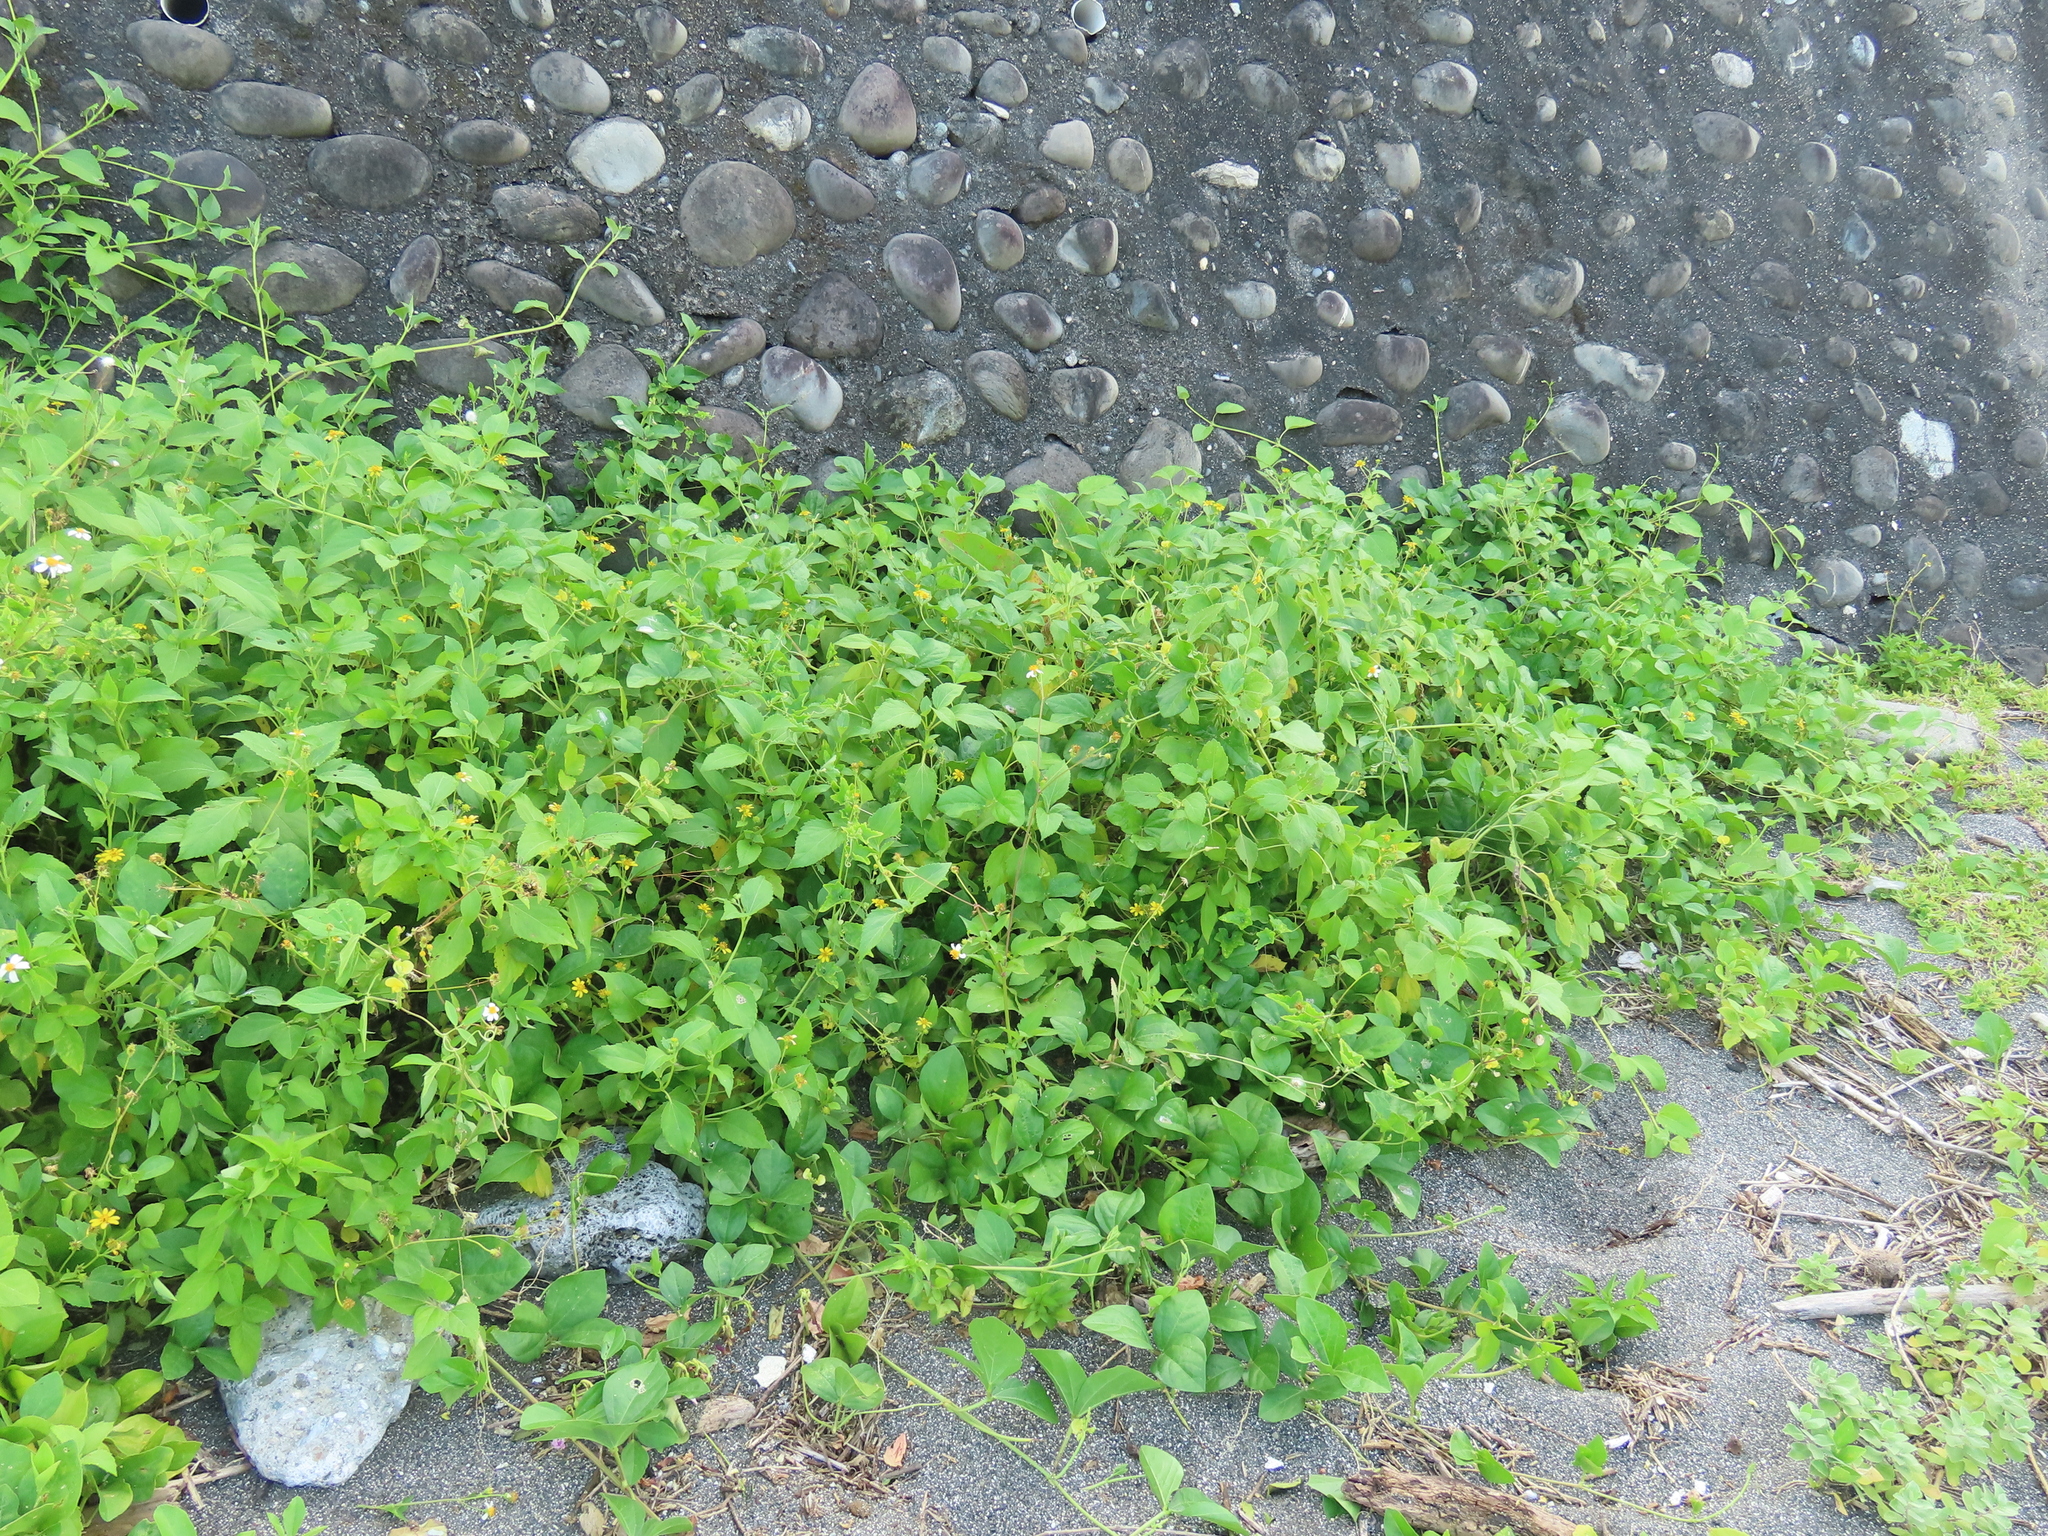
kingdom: Plantae
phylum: Tracheophyta
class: Magnoliopsida
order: Asterales
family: Asteraceae
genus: Wollastonia
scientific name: Wollastonia biflora
